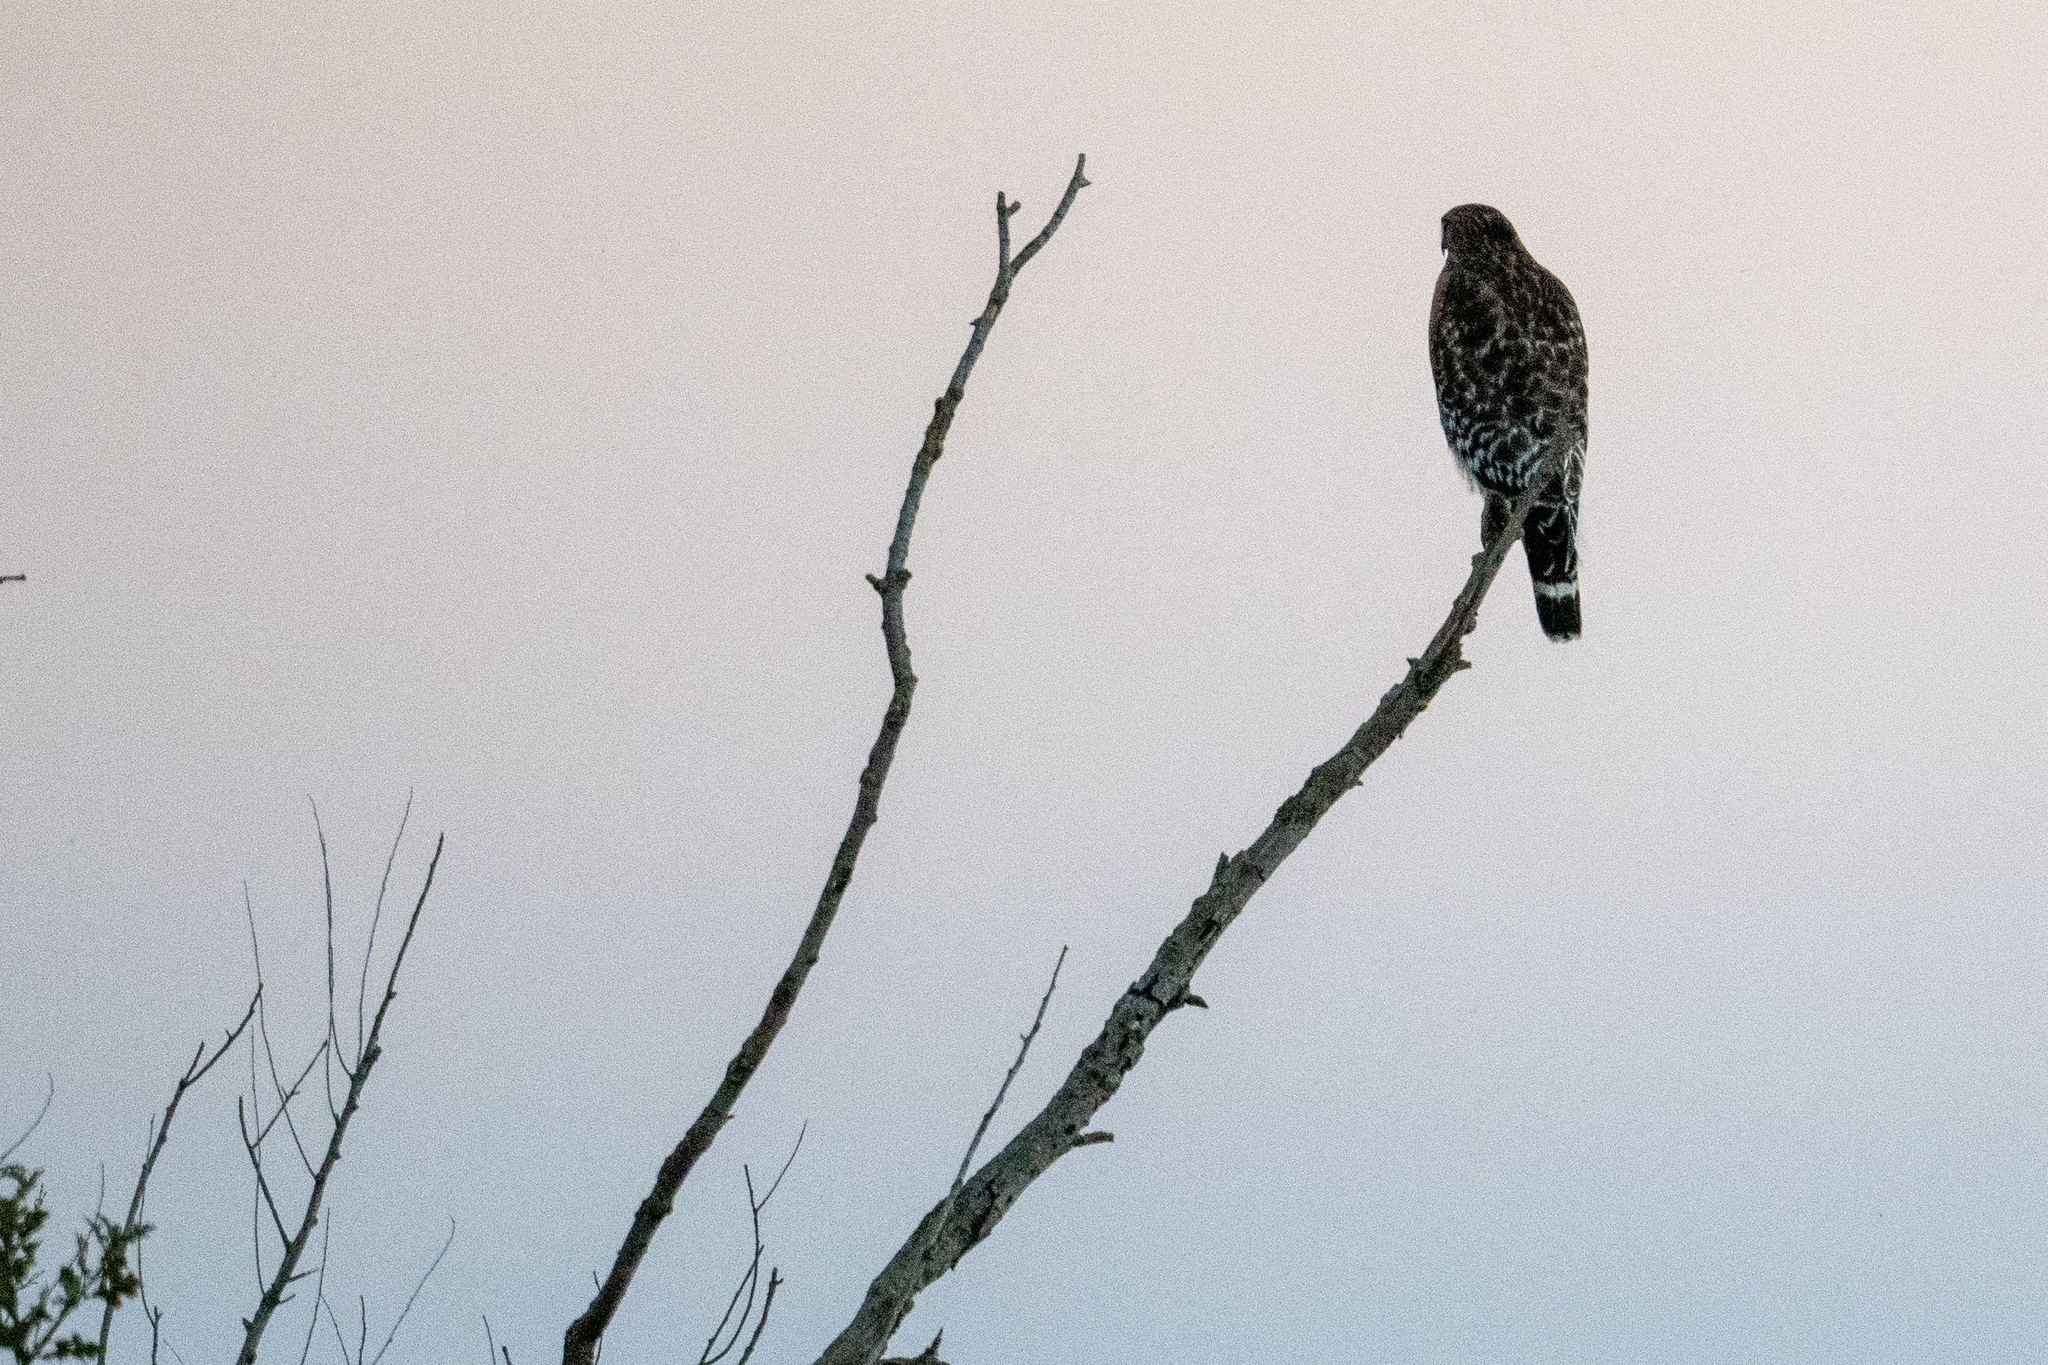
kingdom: Animalia
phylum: Chordata
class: Aves
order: Accipitriformes
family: Accipitridae
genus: Buteo
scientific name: Buteo lineatus
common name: Red-shouldered hawk
